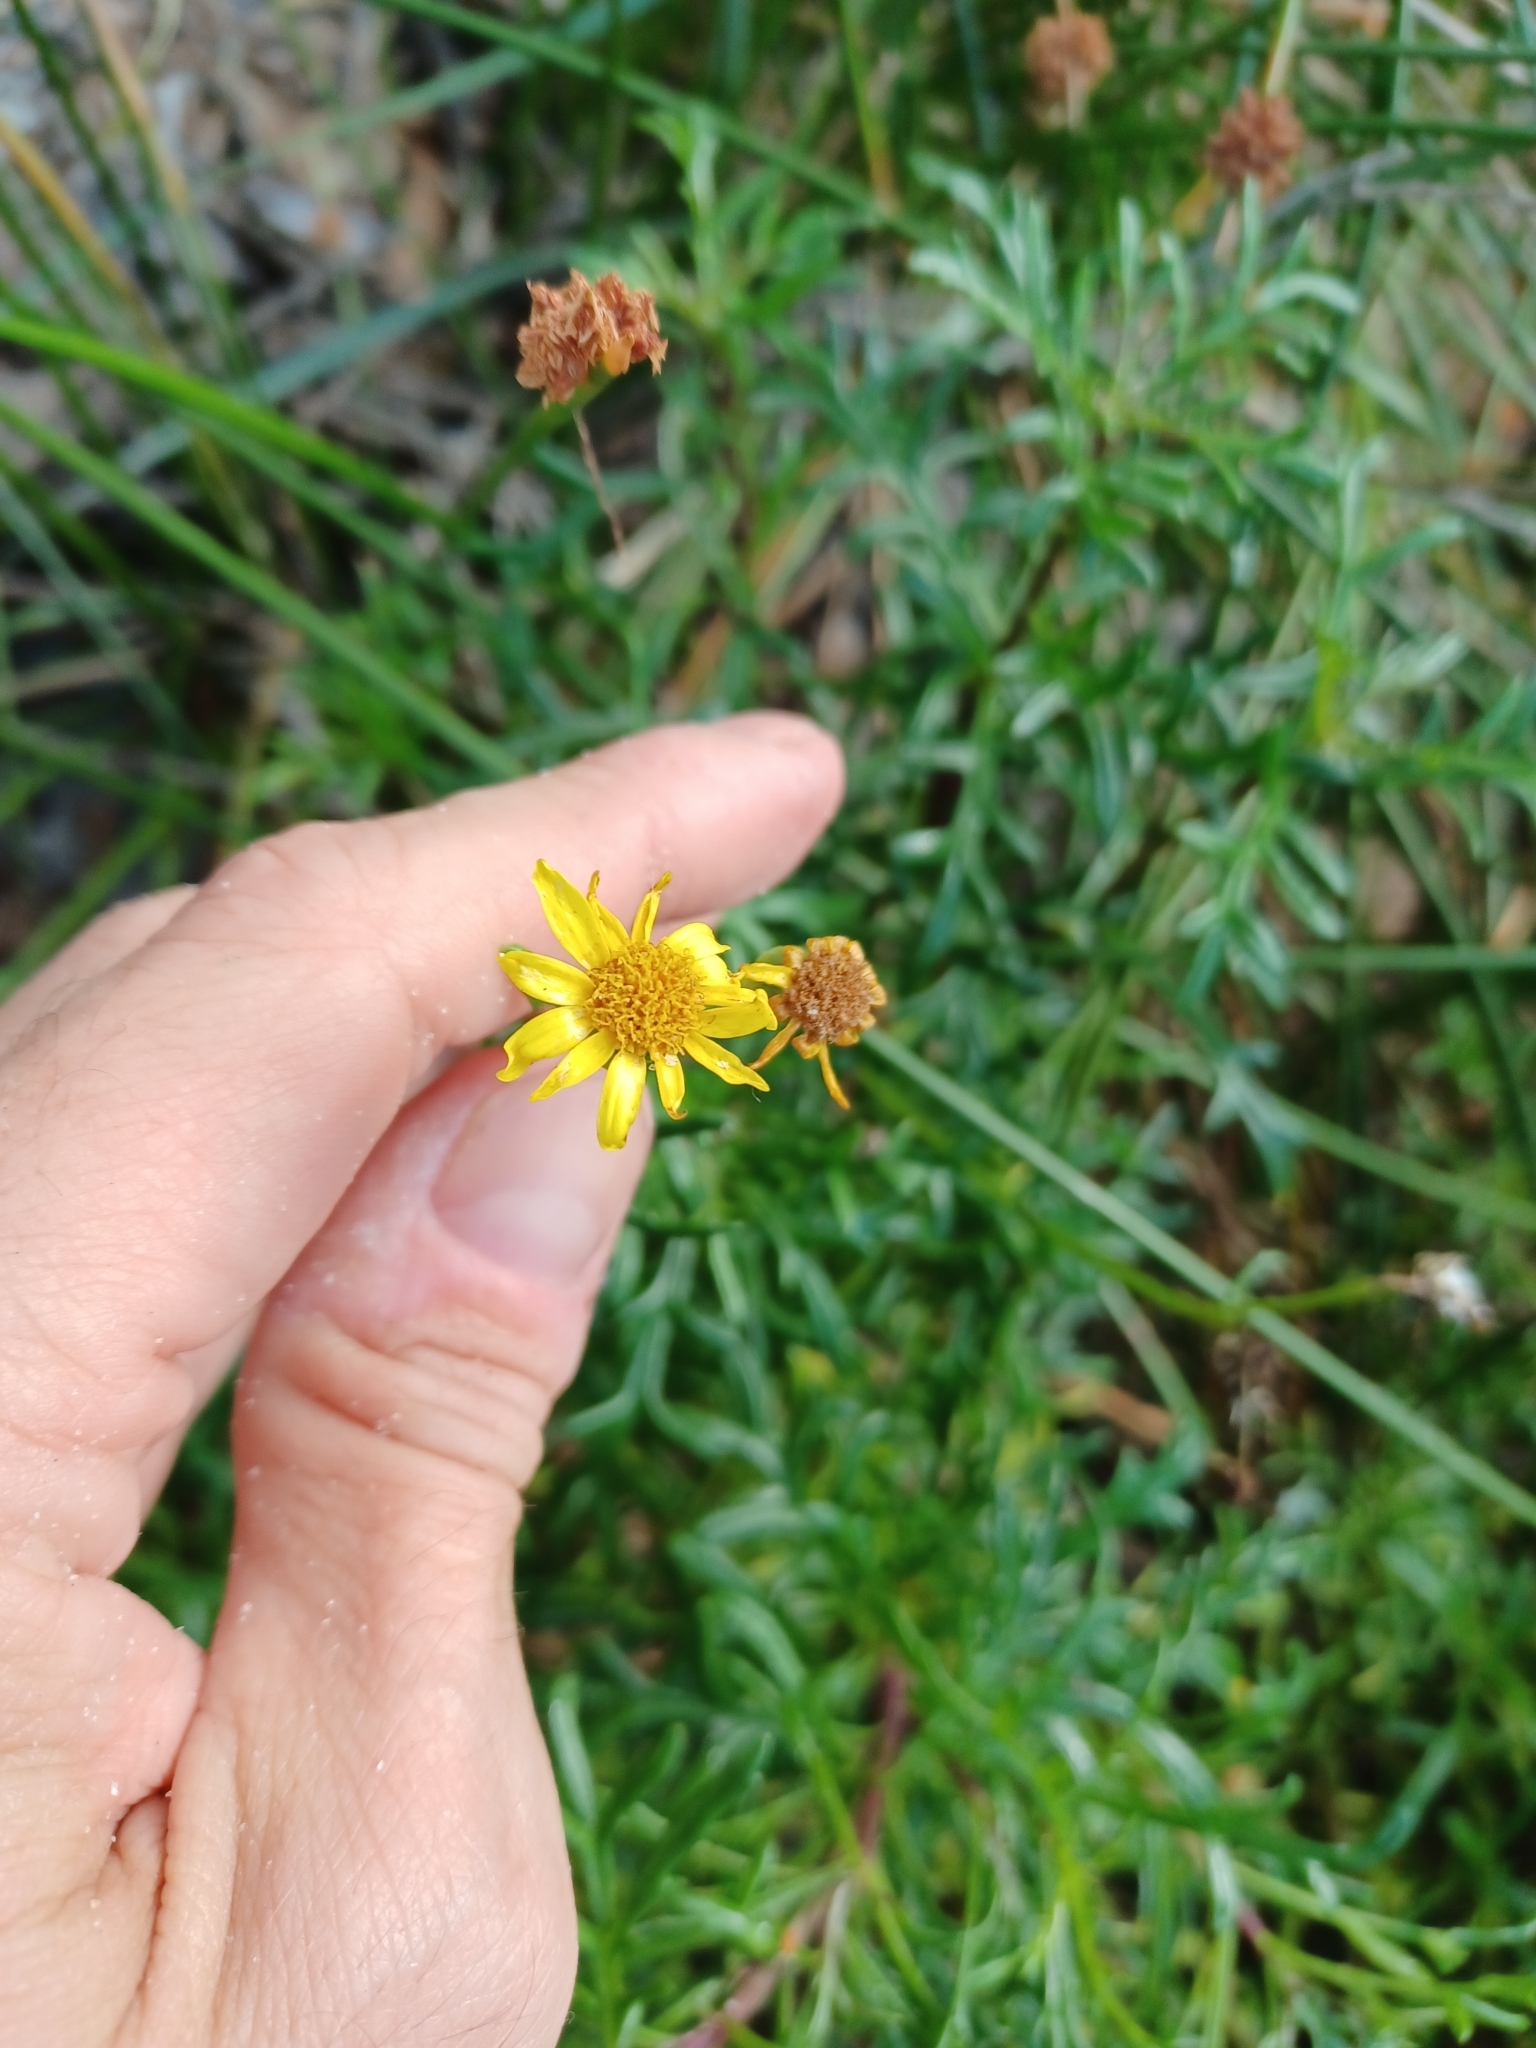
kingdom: Plantae
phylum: Tracheophyta
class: Magnoliopsida
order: Asterales
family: Asteraceae
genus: Senecio
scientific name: Senecio pinnatifolius
